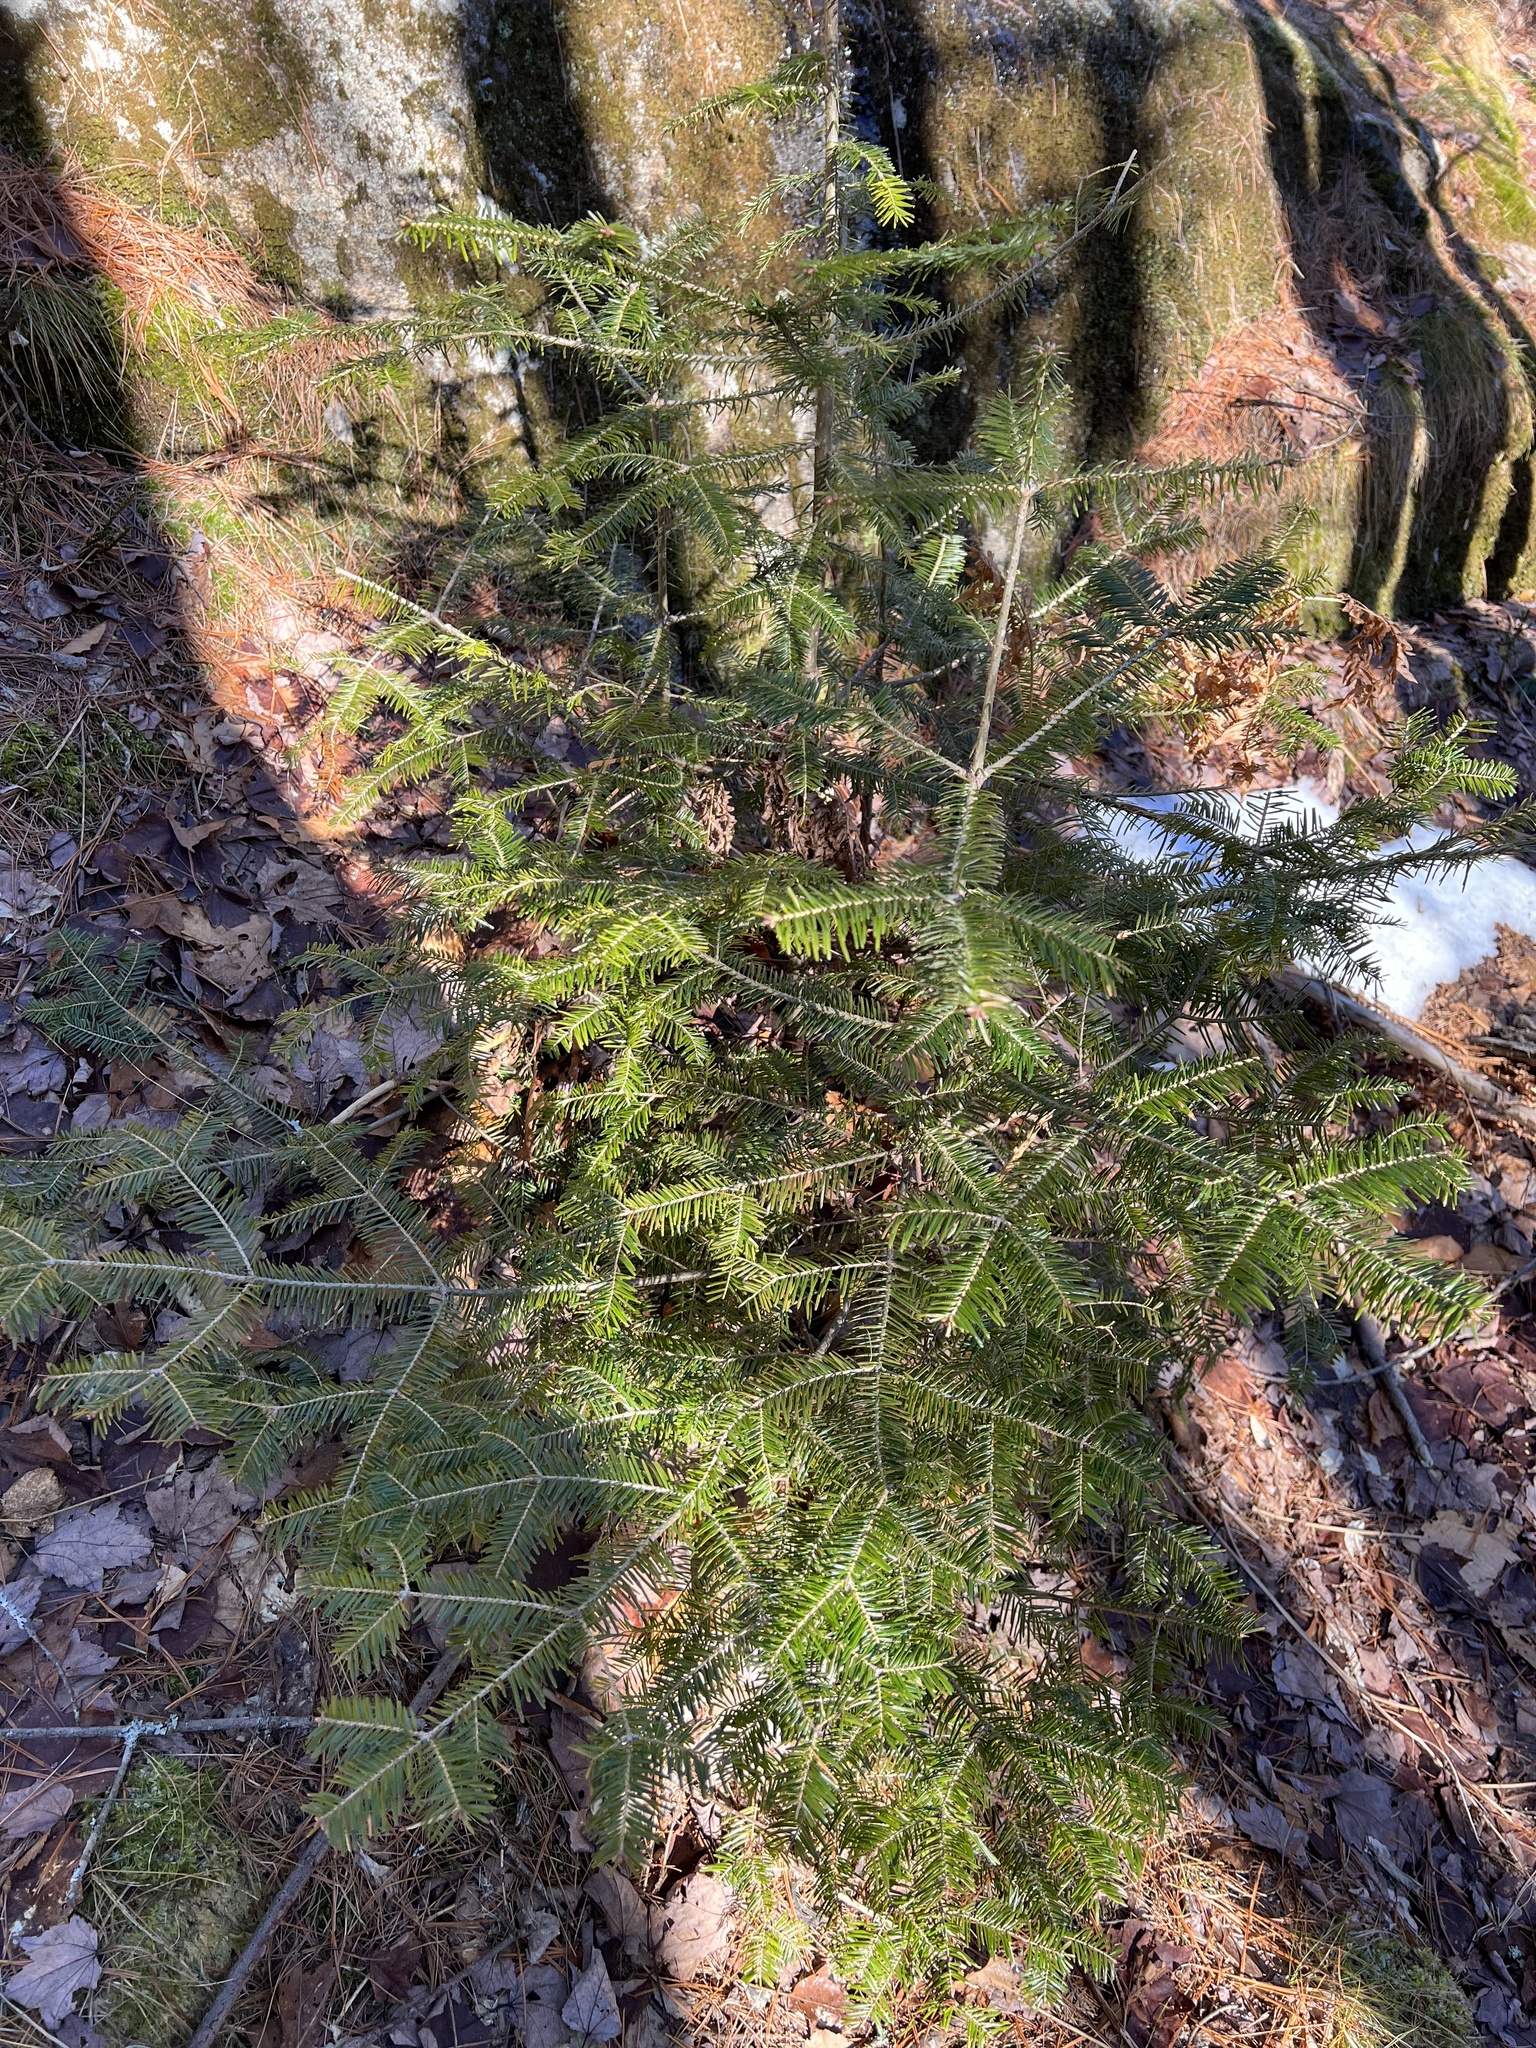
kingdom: Plantae
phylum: Tracheophyta
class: Pinopsida
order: Pinales
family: Pinaceae
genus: Abies
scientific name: Abies balsamea
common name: Balsam fir
